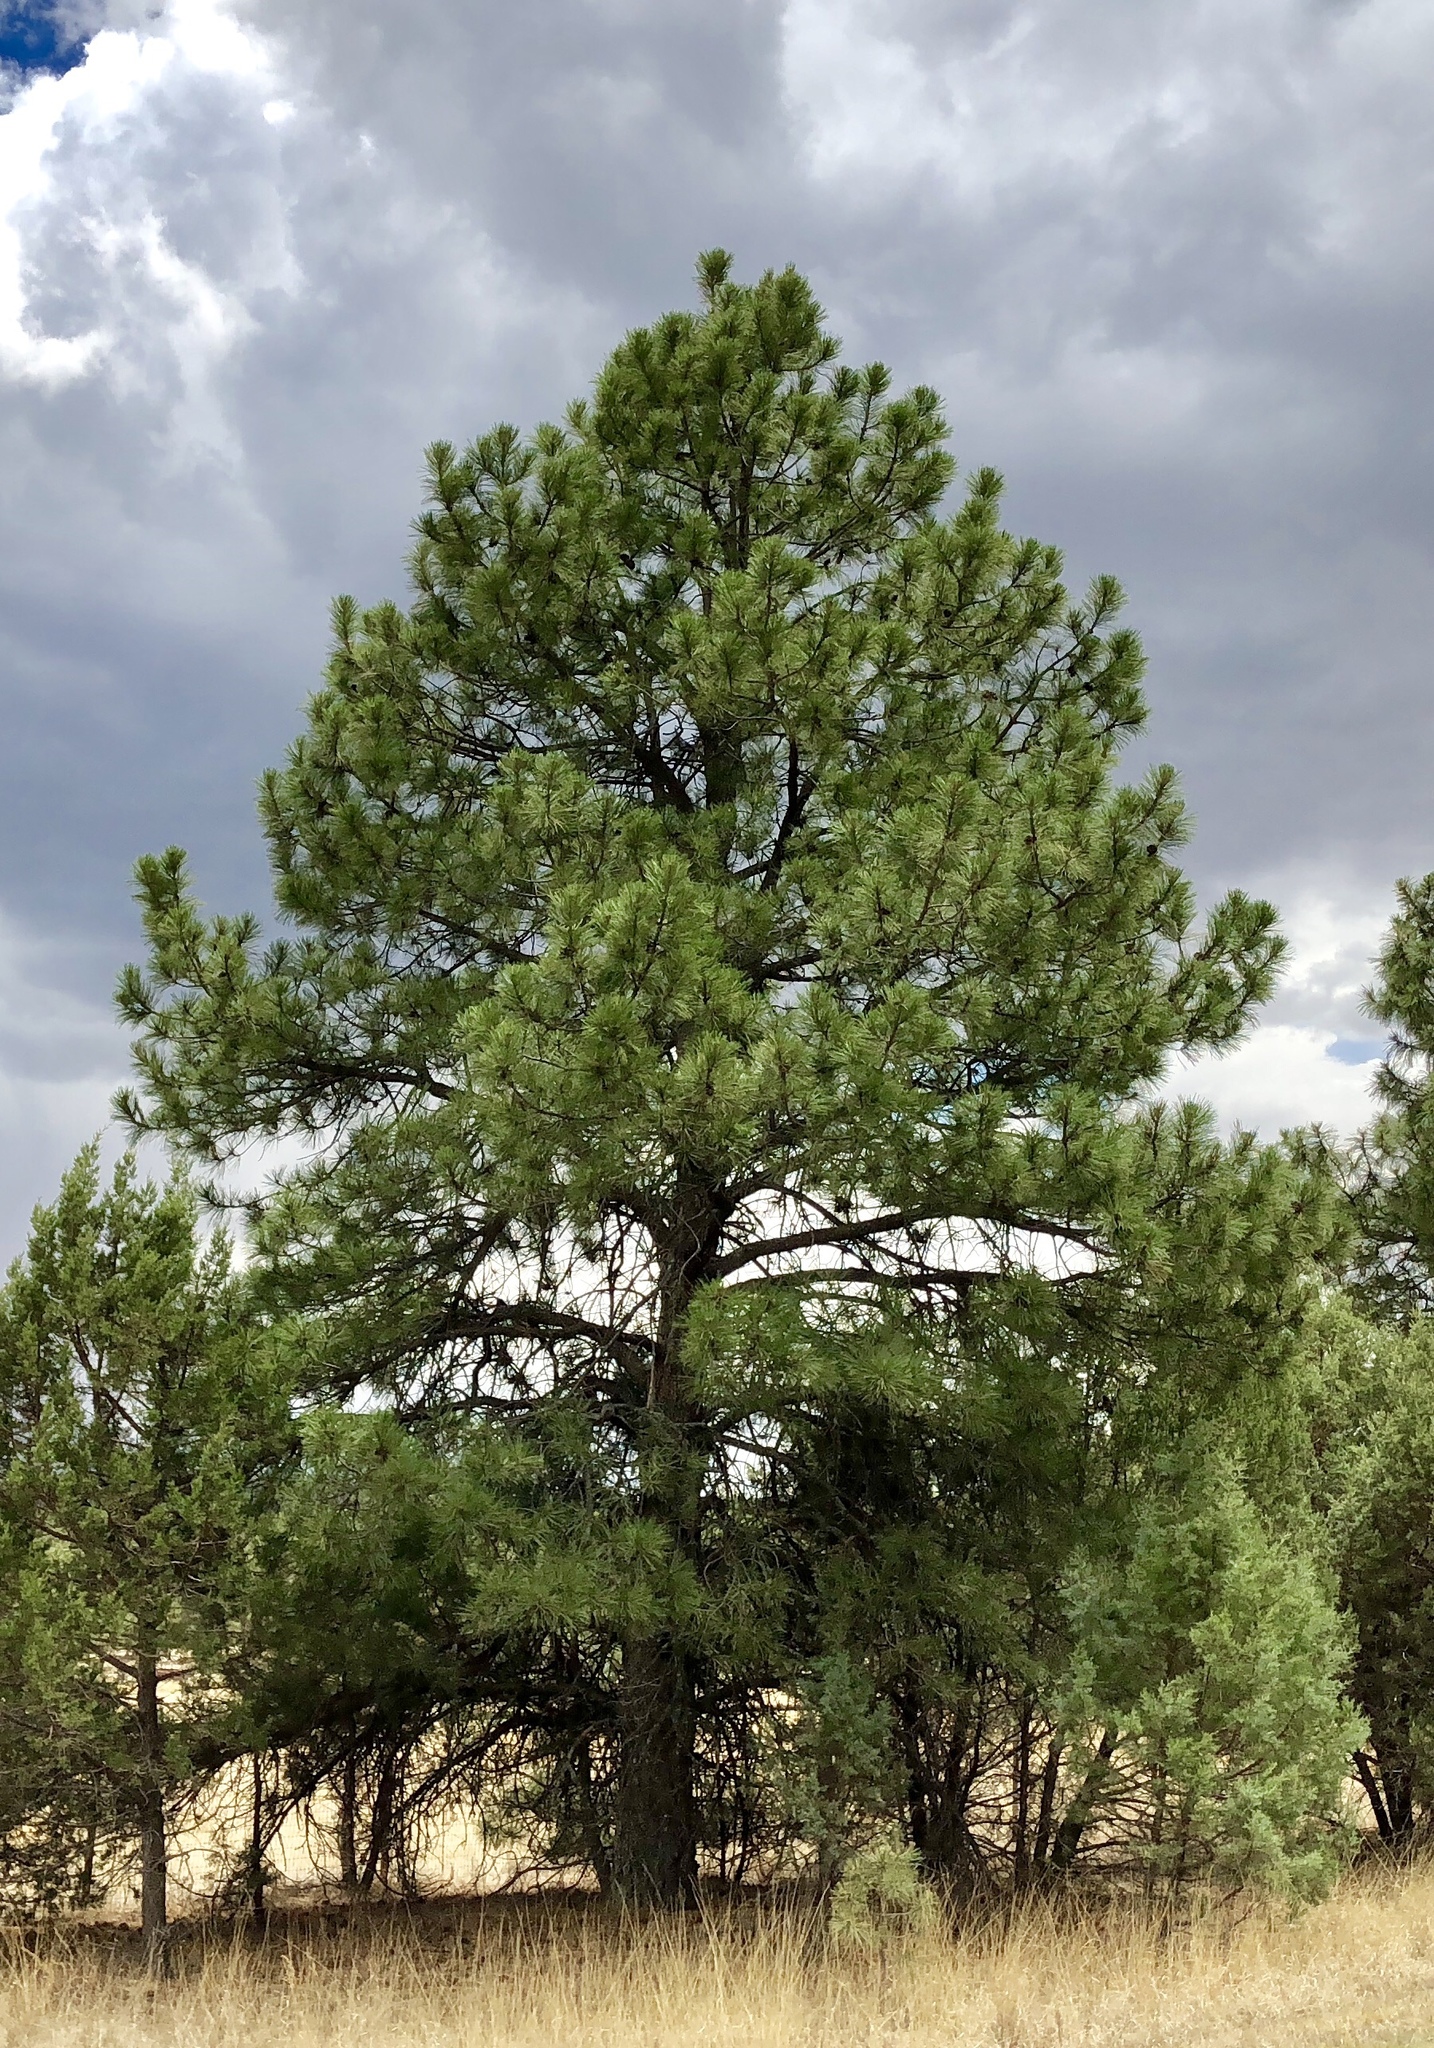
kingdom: Plantae
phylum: Tracheophyta
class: Pinopsida
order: Pinales
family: Pinaceae
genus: Pinus
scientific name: Pinus ponderosa
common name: Western yellow-pine
